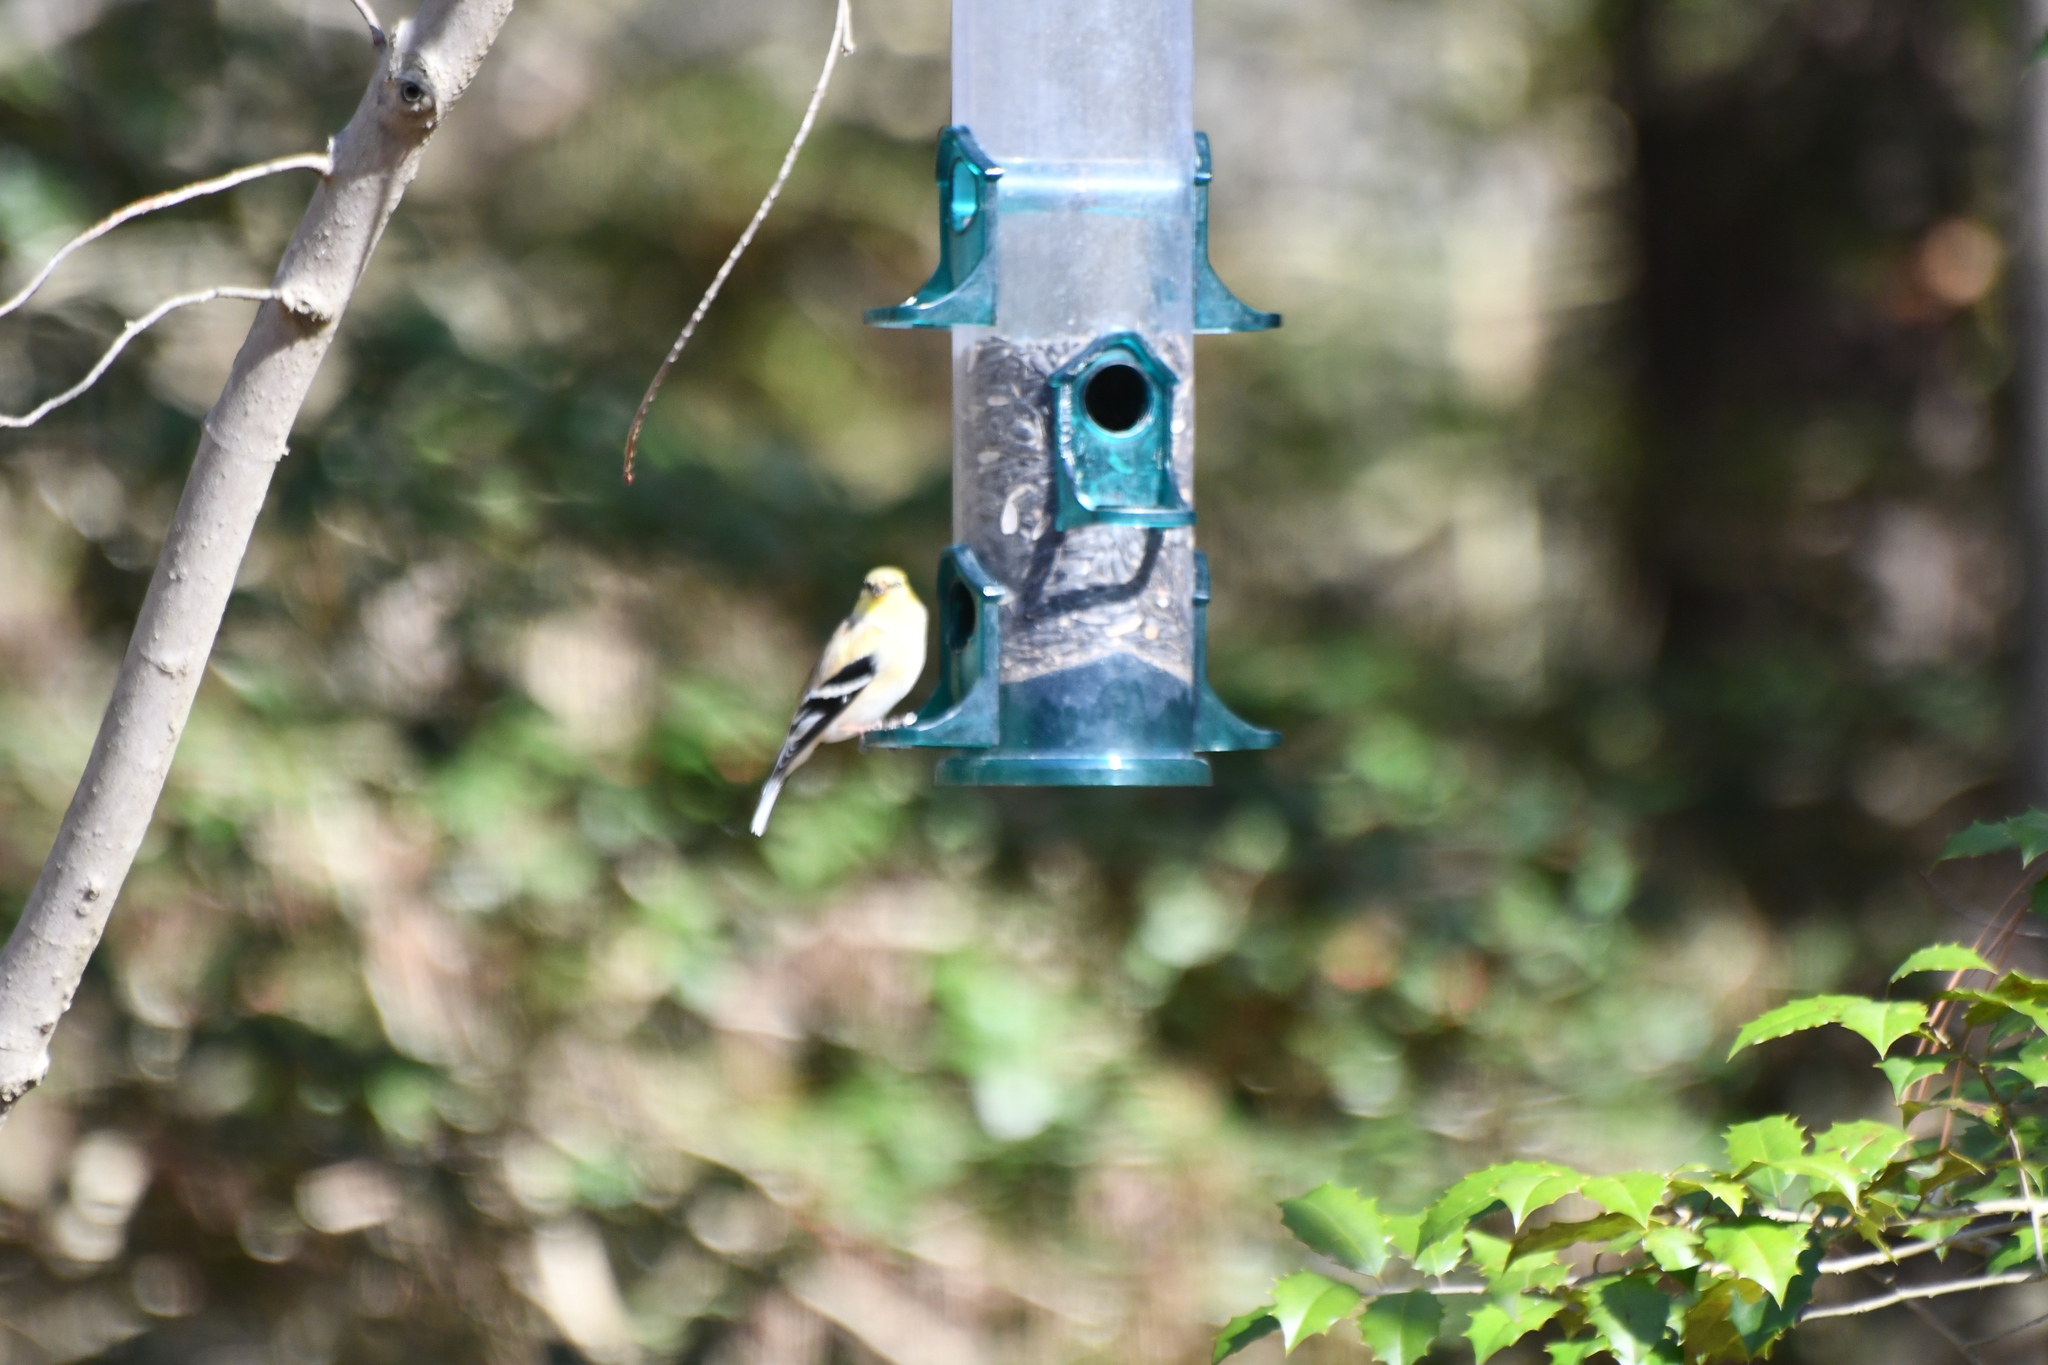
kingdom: Animalia
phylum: Chordata
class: Aves
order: Passeriformes
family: Fringillidae
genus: Spinus
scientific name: Spinus tristis
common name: American goldfinch
